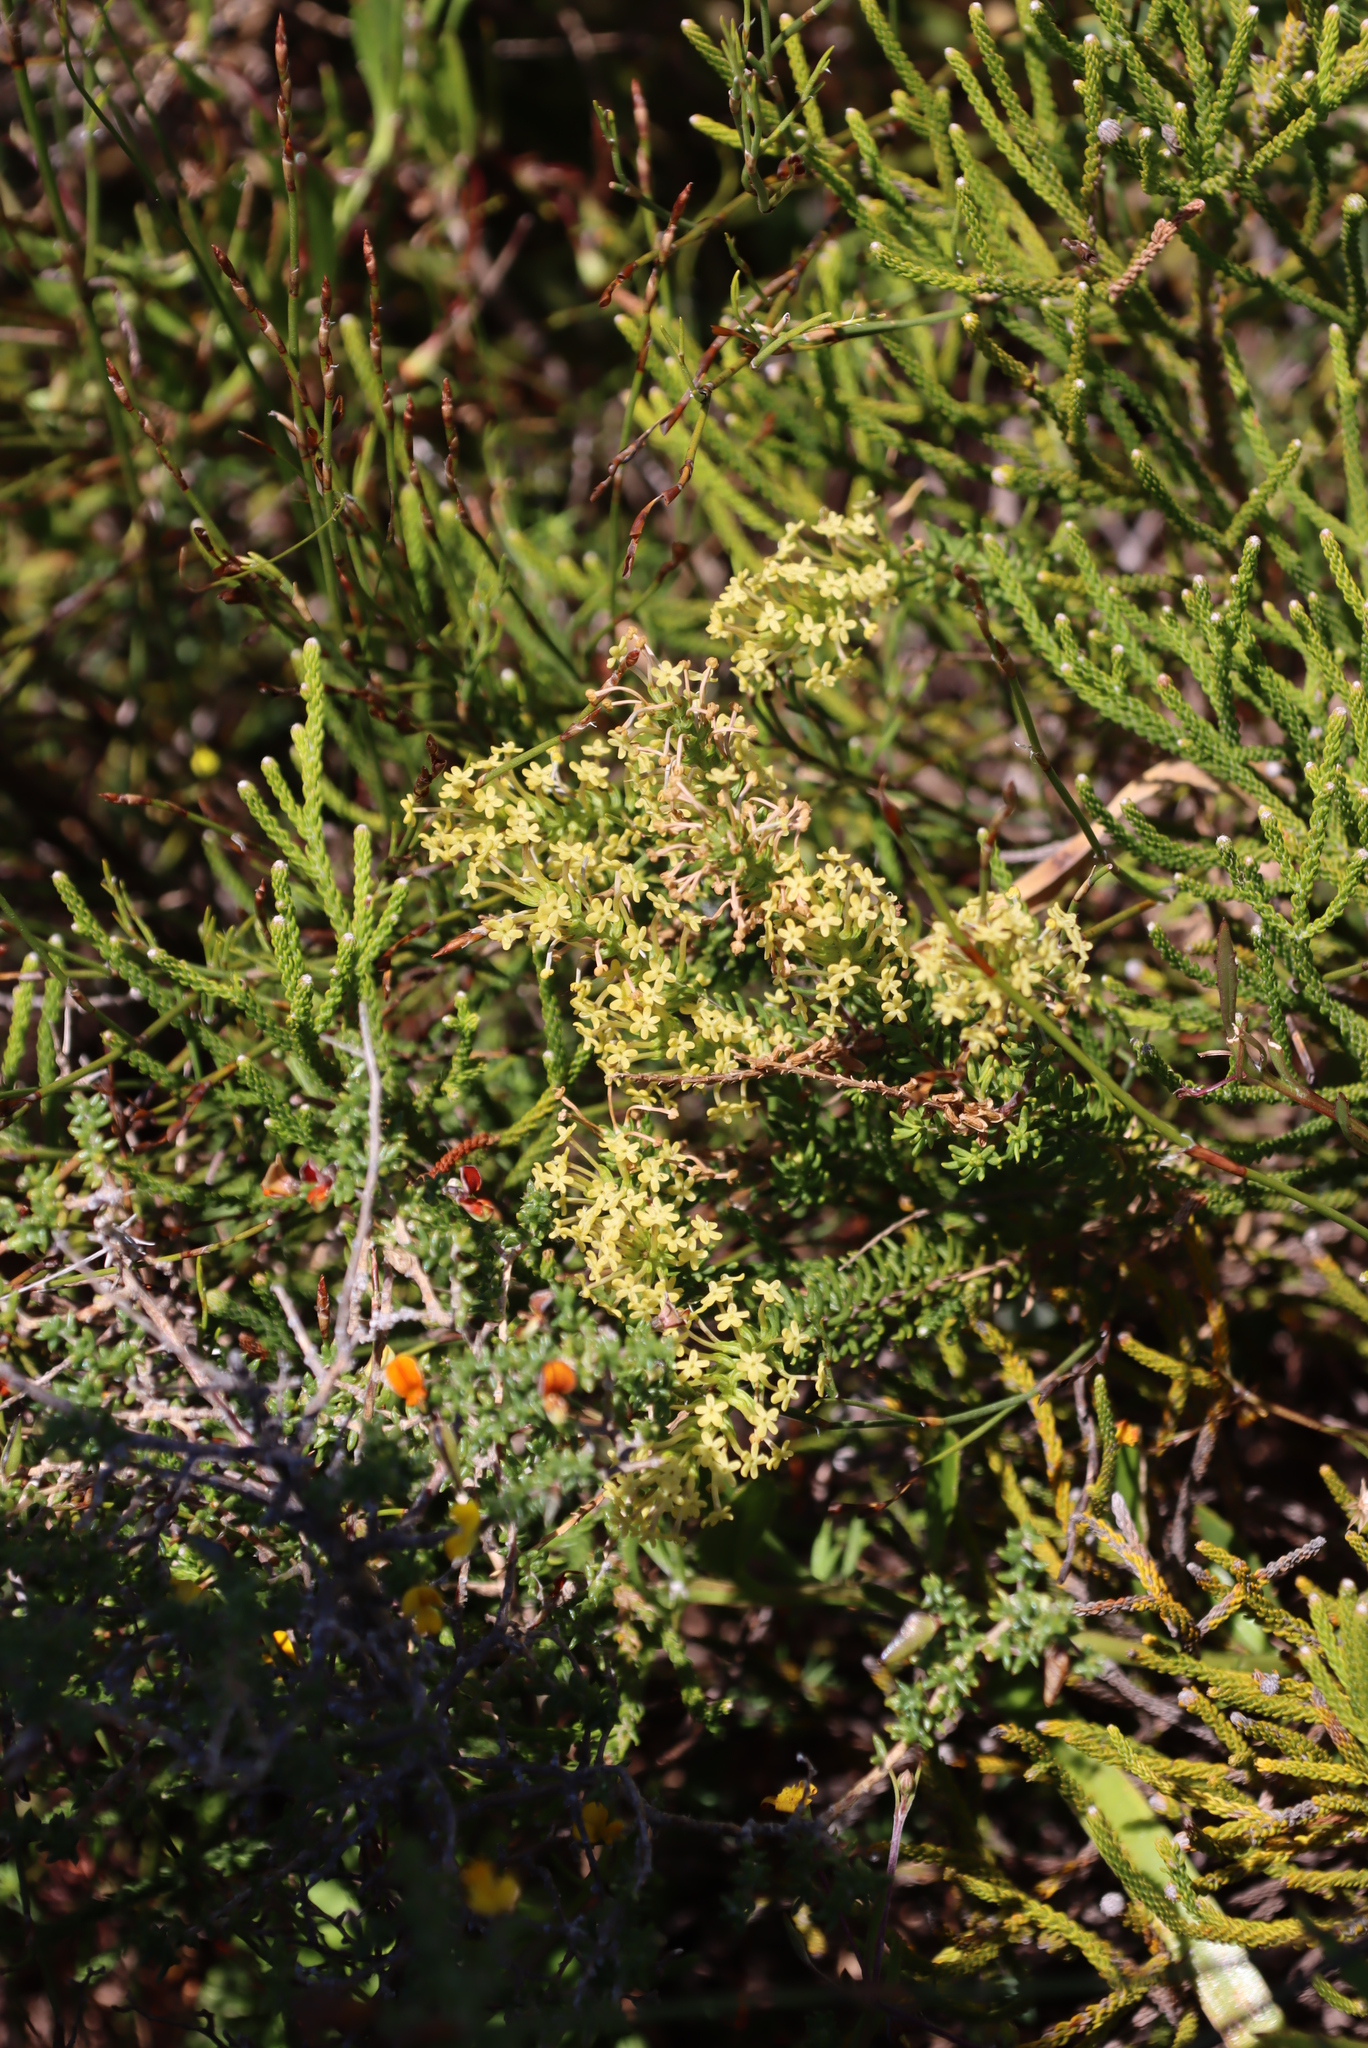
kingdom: Plantae
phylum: Tracheophyta
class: Magnoliopsida
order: Lamiales
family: Scrophulariaceae
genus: Microdon
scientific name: Microdon dubius
